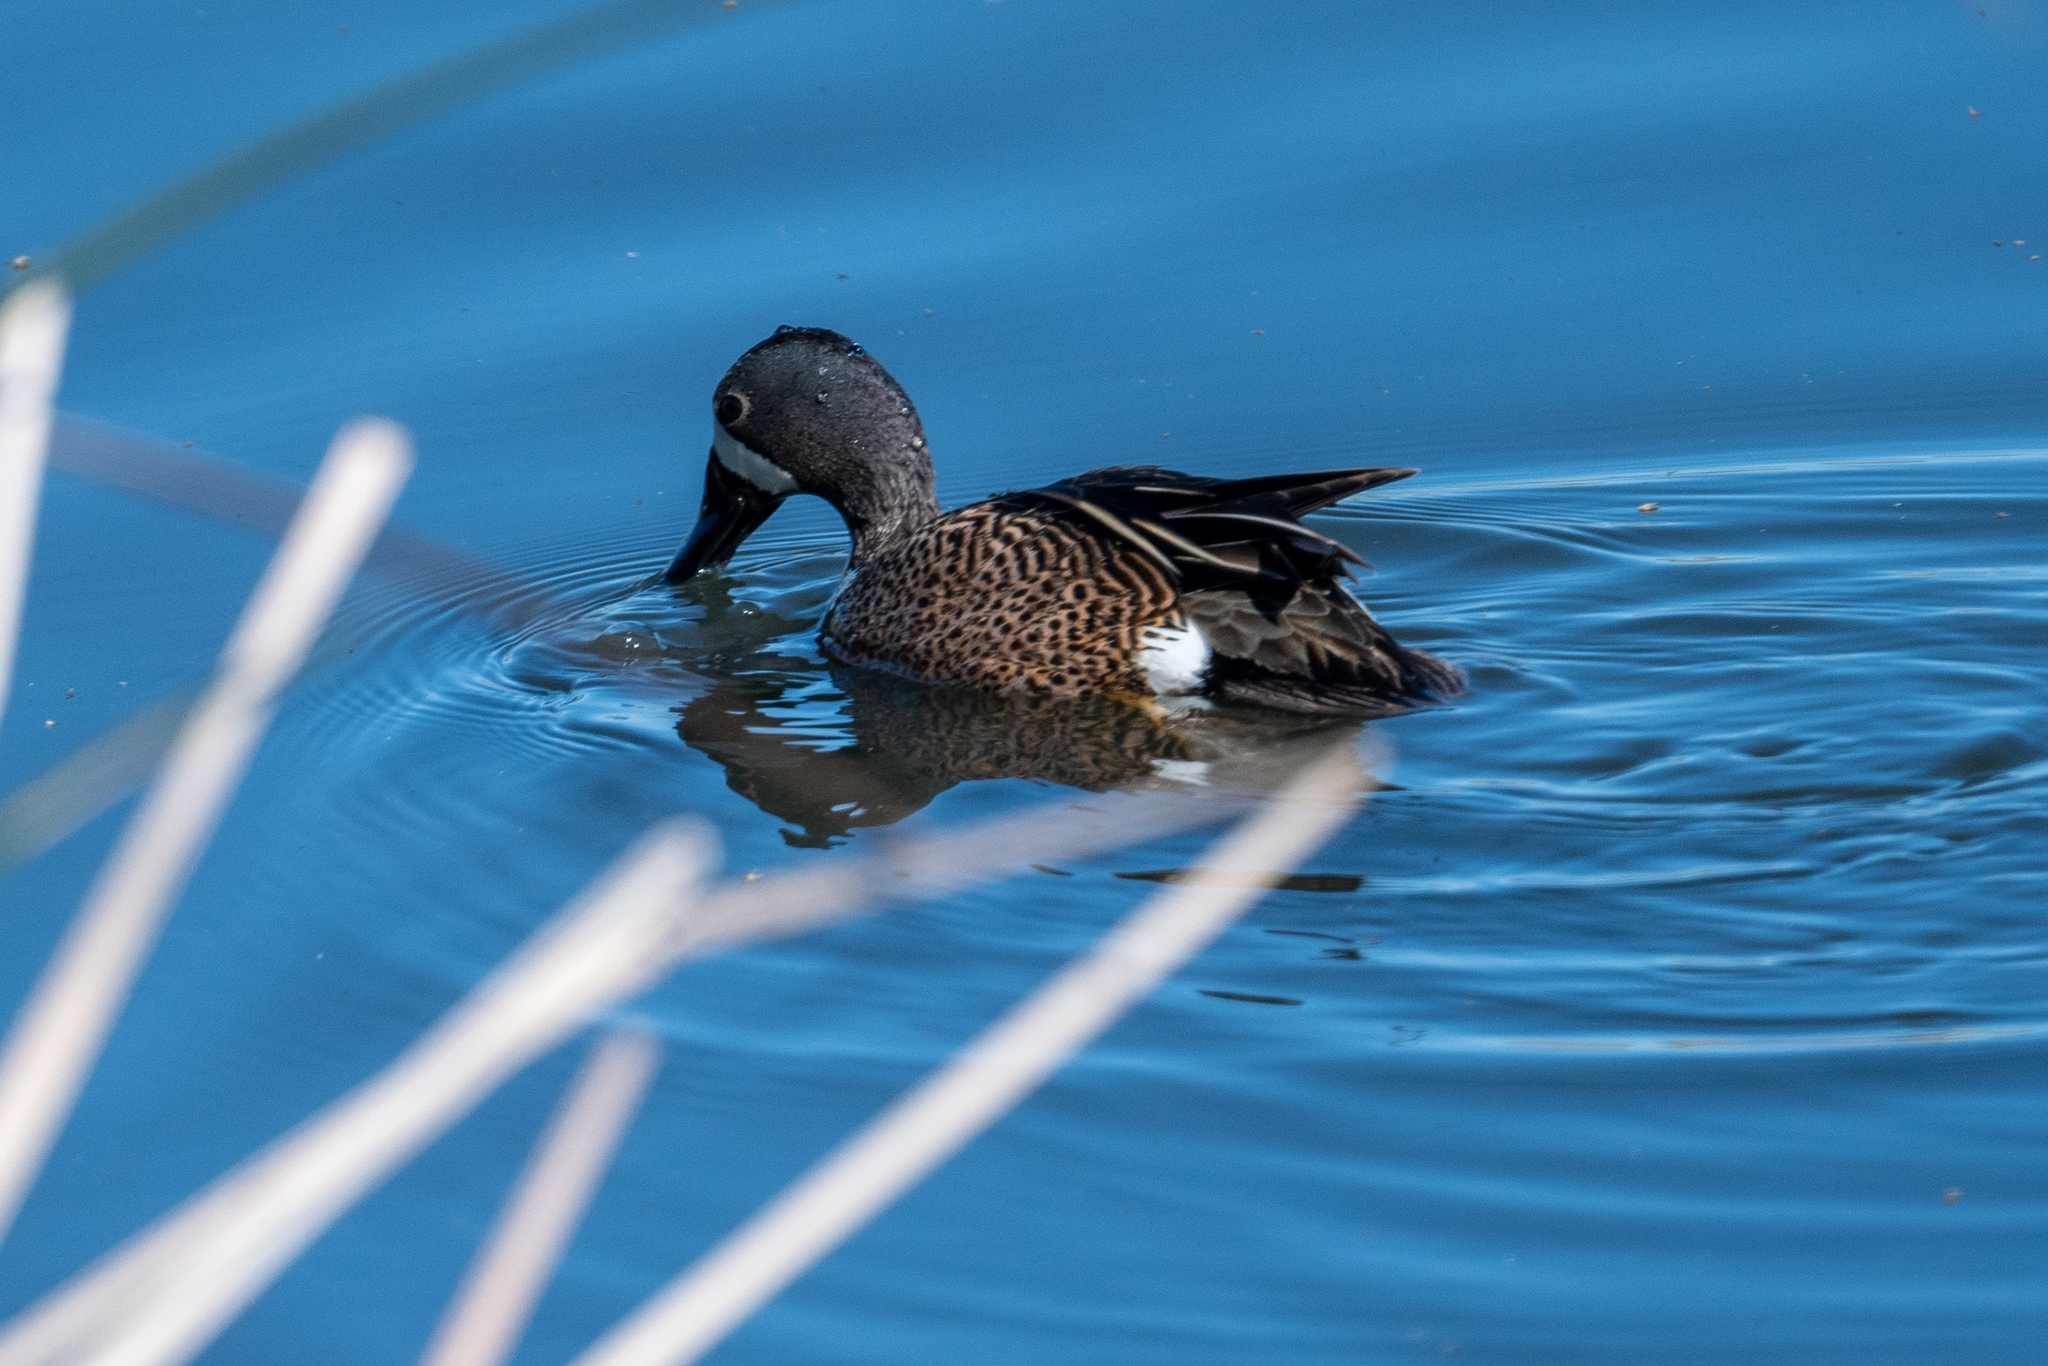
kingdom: Animalia
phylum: Chordata
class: Aves
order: Anseriformes
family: Anatidae
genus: Spatula
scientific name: Spatula discors
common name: Blue-winged teal
